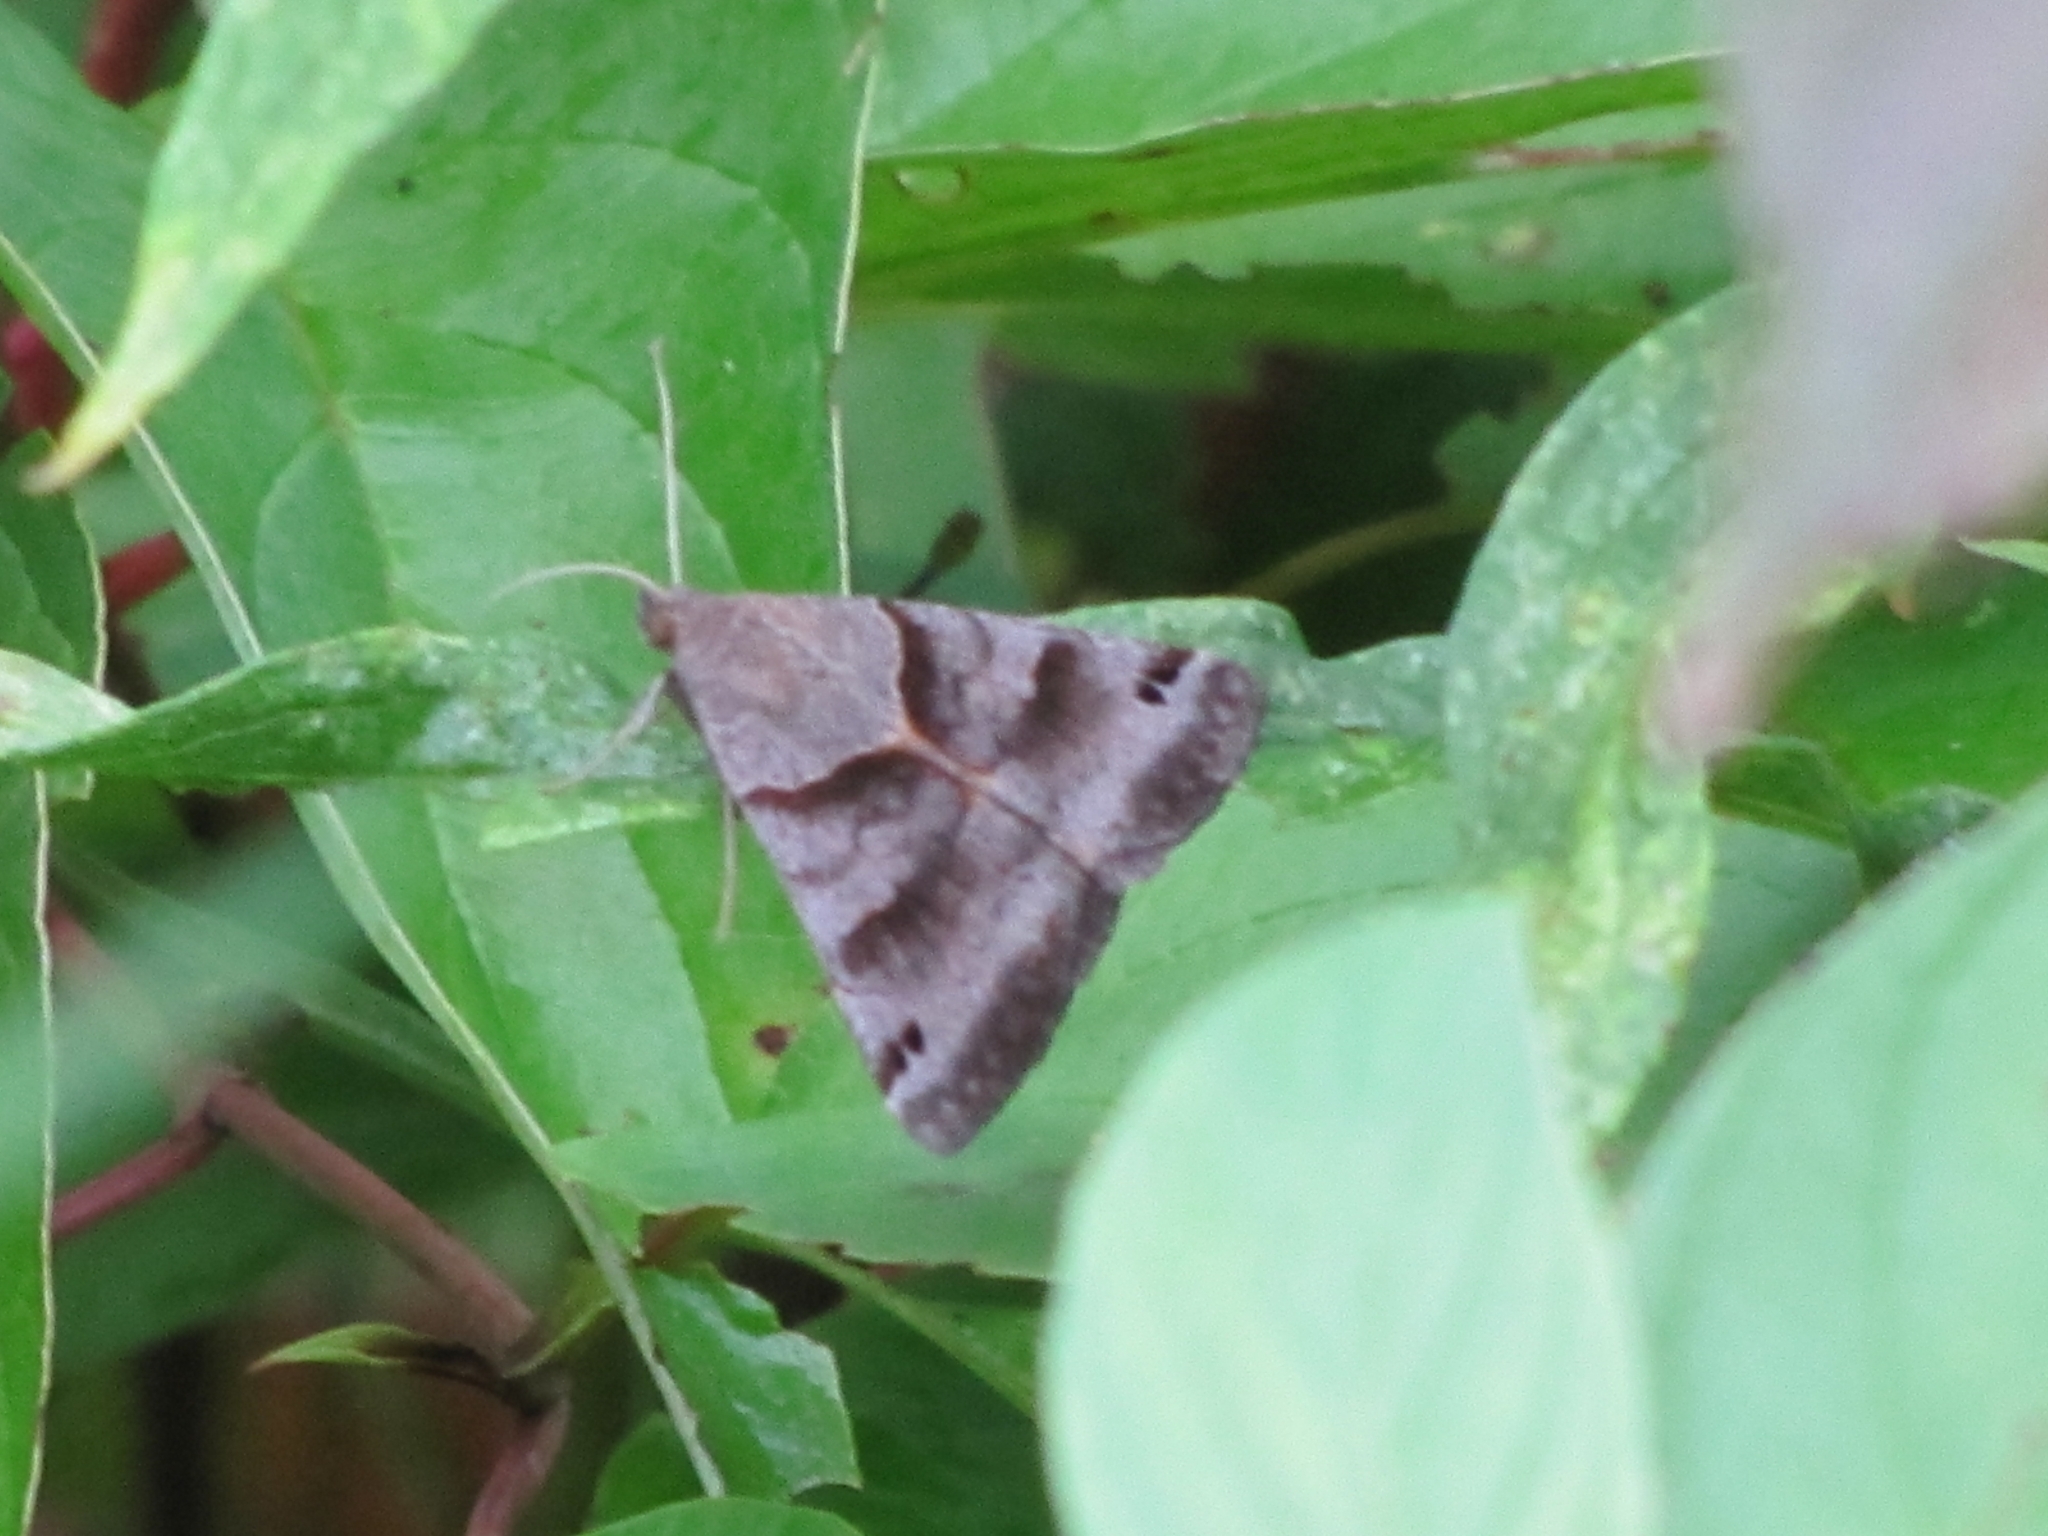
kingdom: Animalia
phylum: Arthropoda
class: Insecta
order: Lepidoptera
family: Erebidae
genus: Caenurgina
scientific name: Caenurgina crassiuscula
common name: Double-barred
